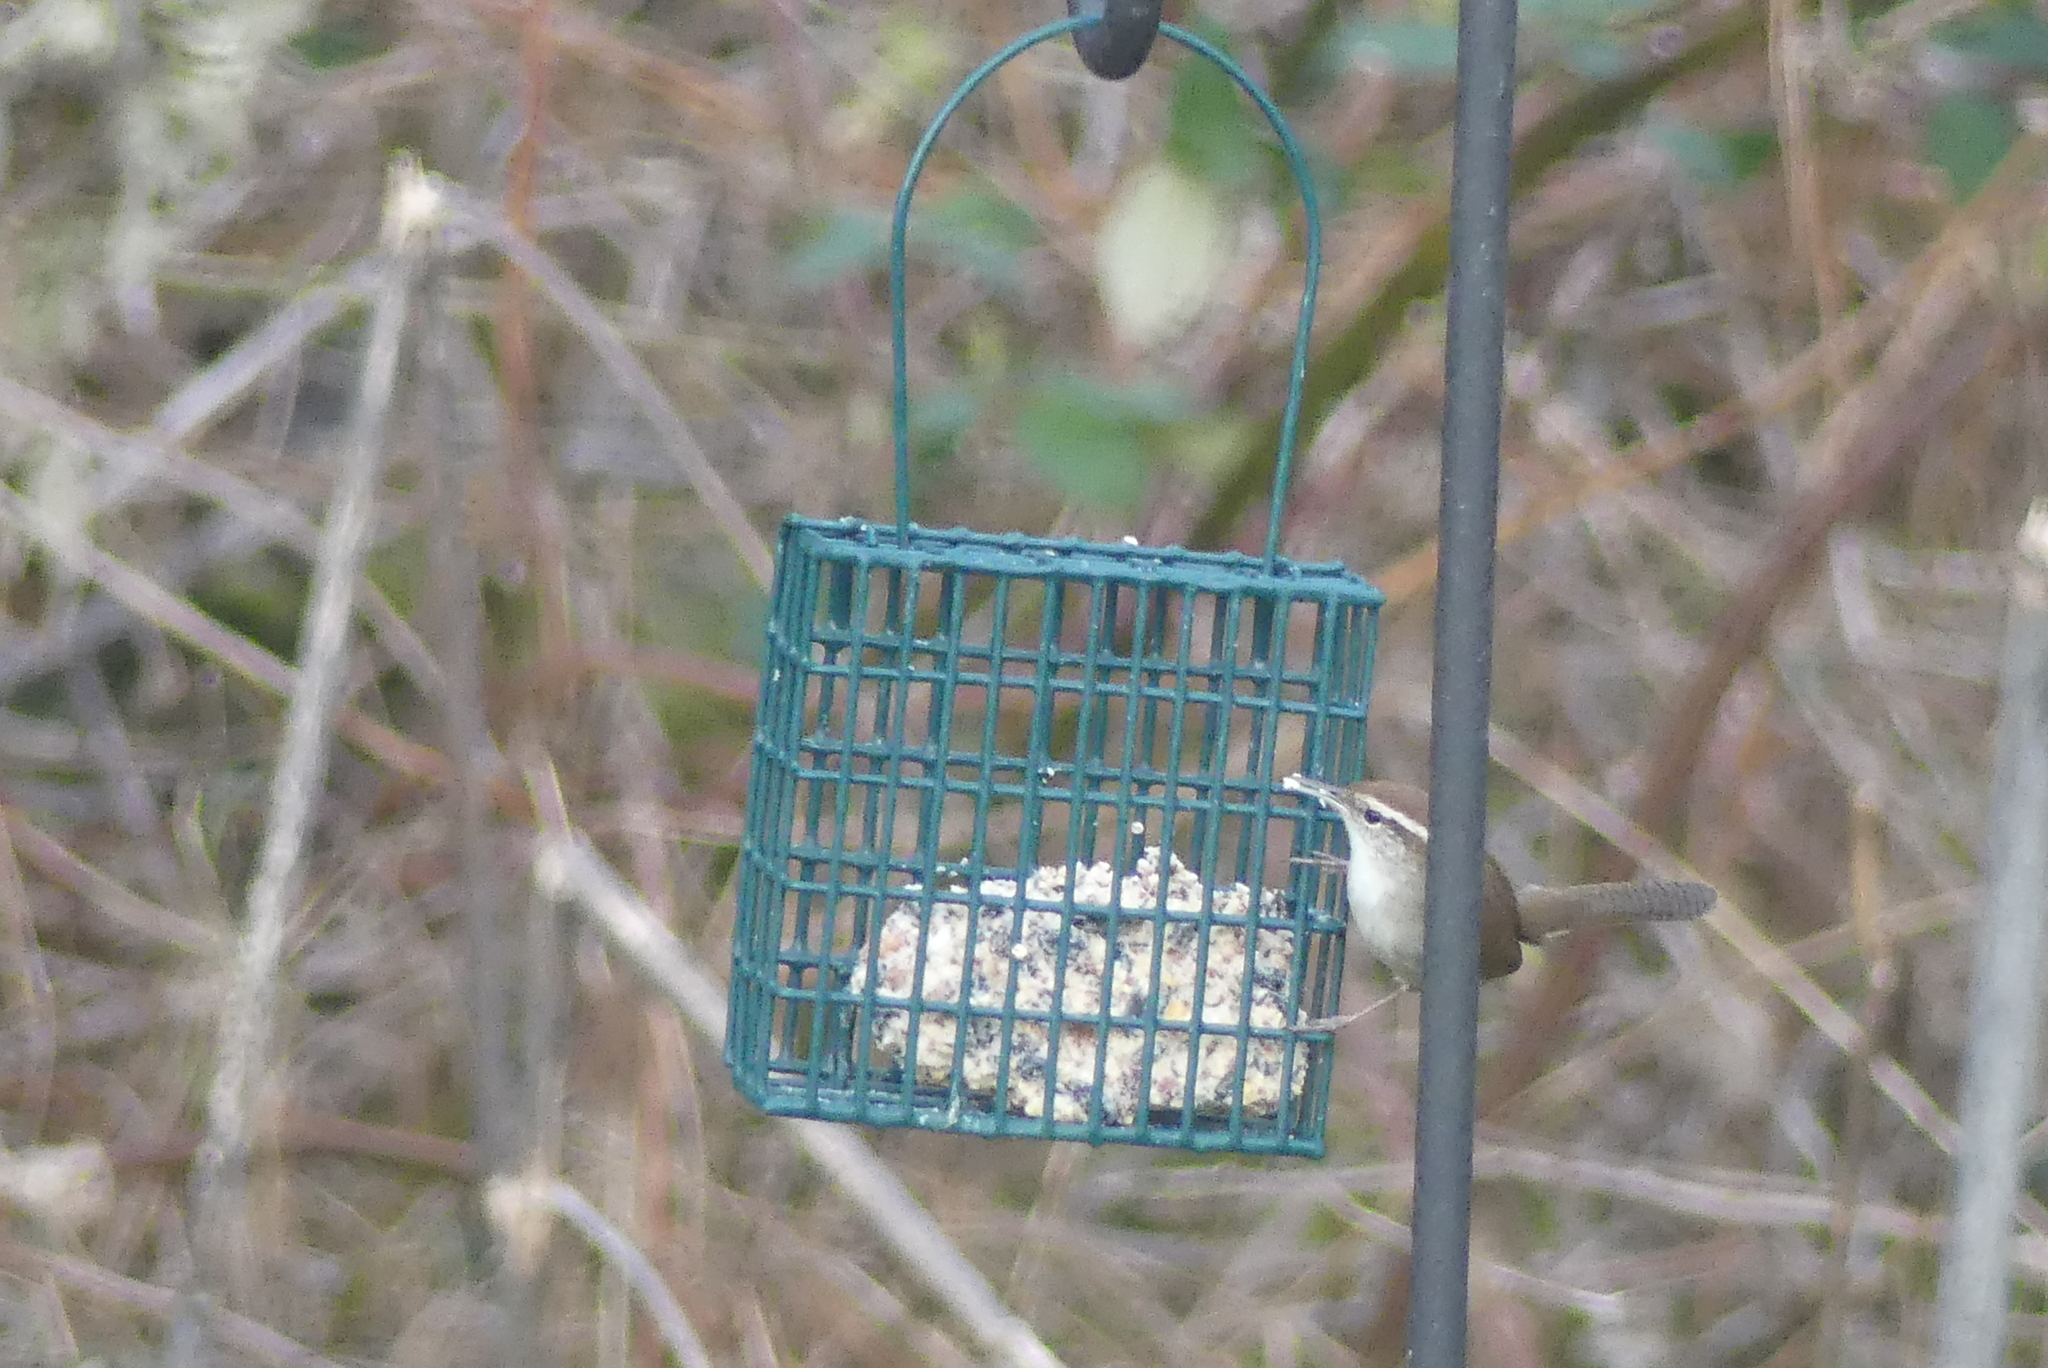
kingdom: Animalia
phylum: Chordata
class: Aves
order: Passeriformes
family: Troglodytidae
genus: Thryomanes
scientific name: Thryomanes bewickii
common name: Bewick's wren
